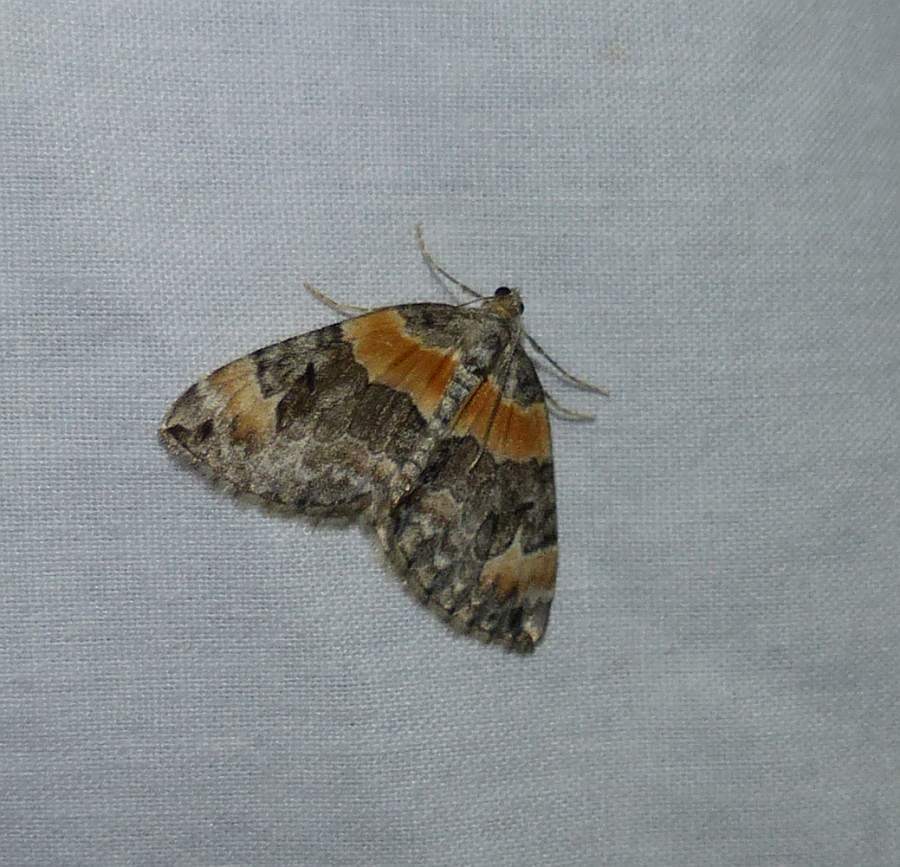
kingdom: Animalia
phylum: Arthropoda
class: Insecta
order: Lepidoptera
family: Geometridae
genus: Dysstroma
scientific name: Dysstroma hersiliata
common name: Orange-barred carpet
